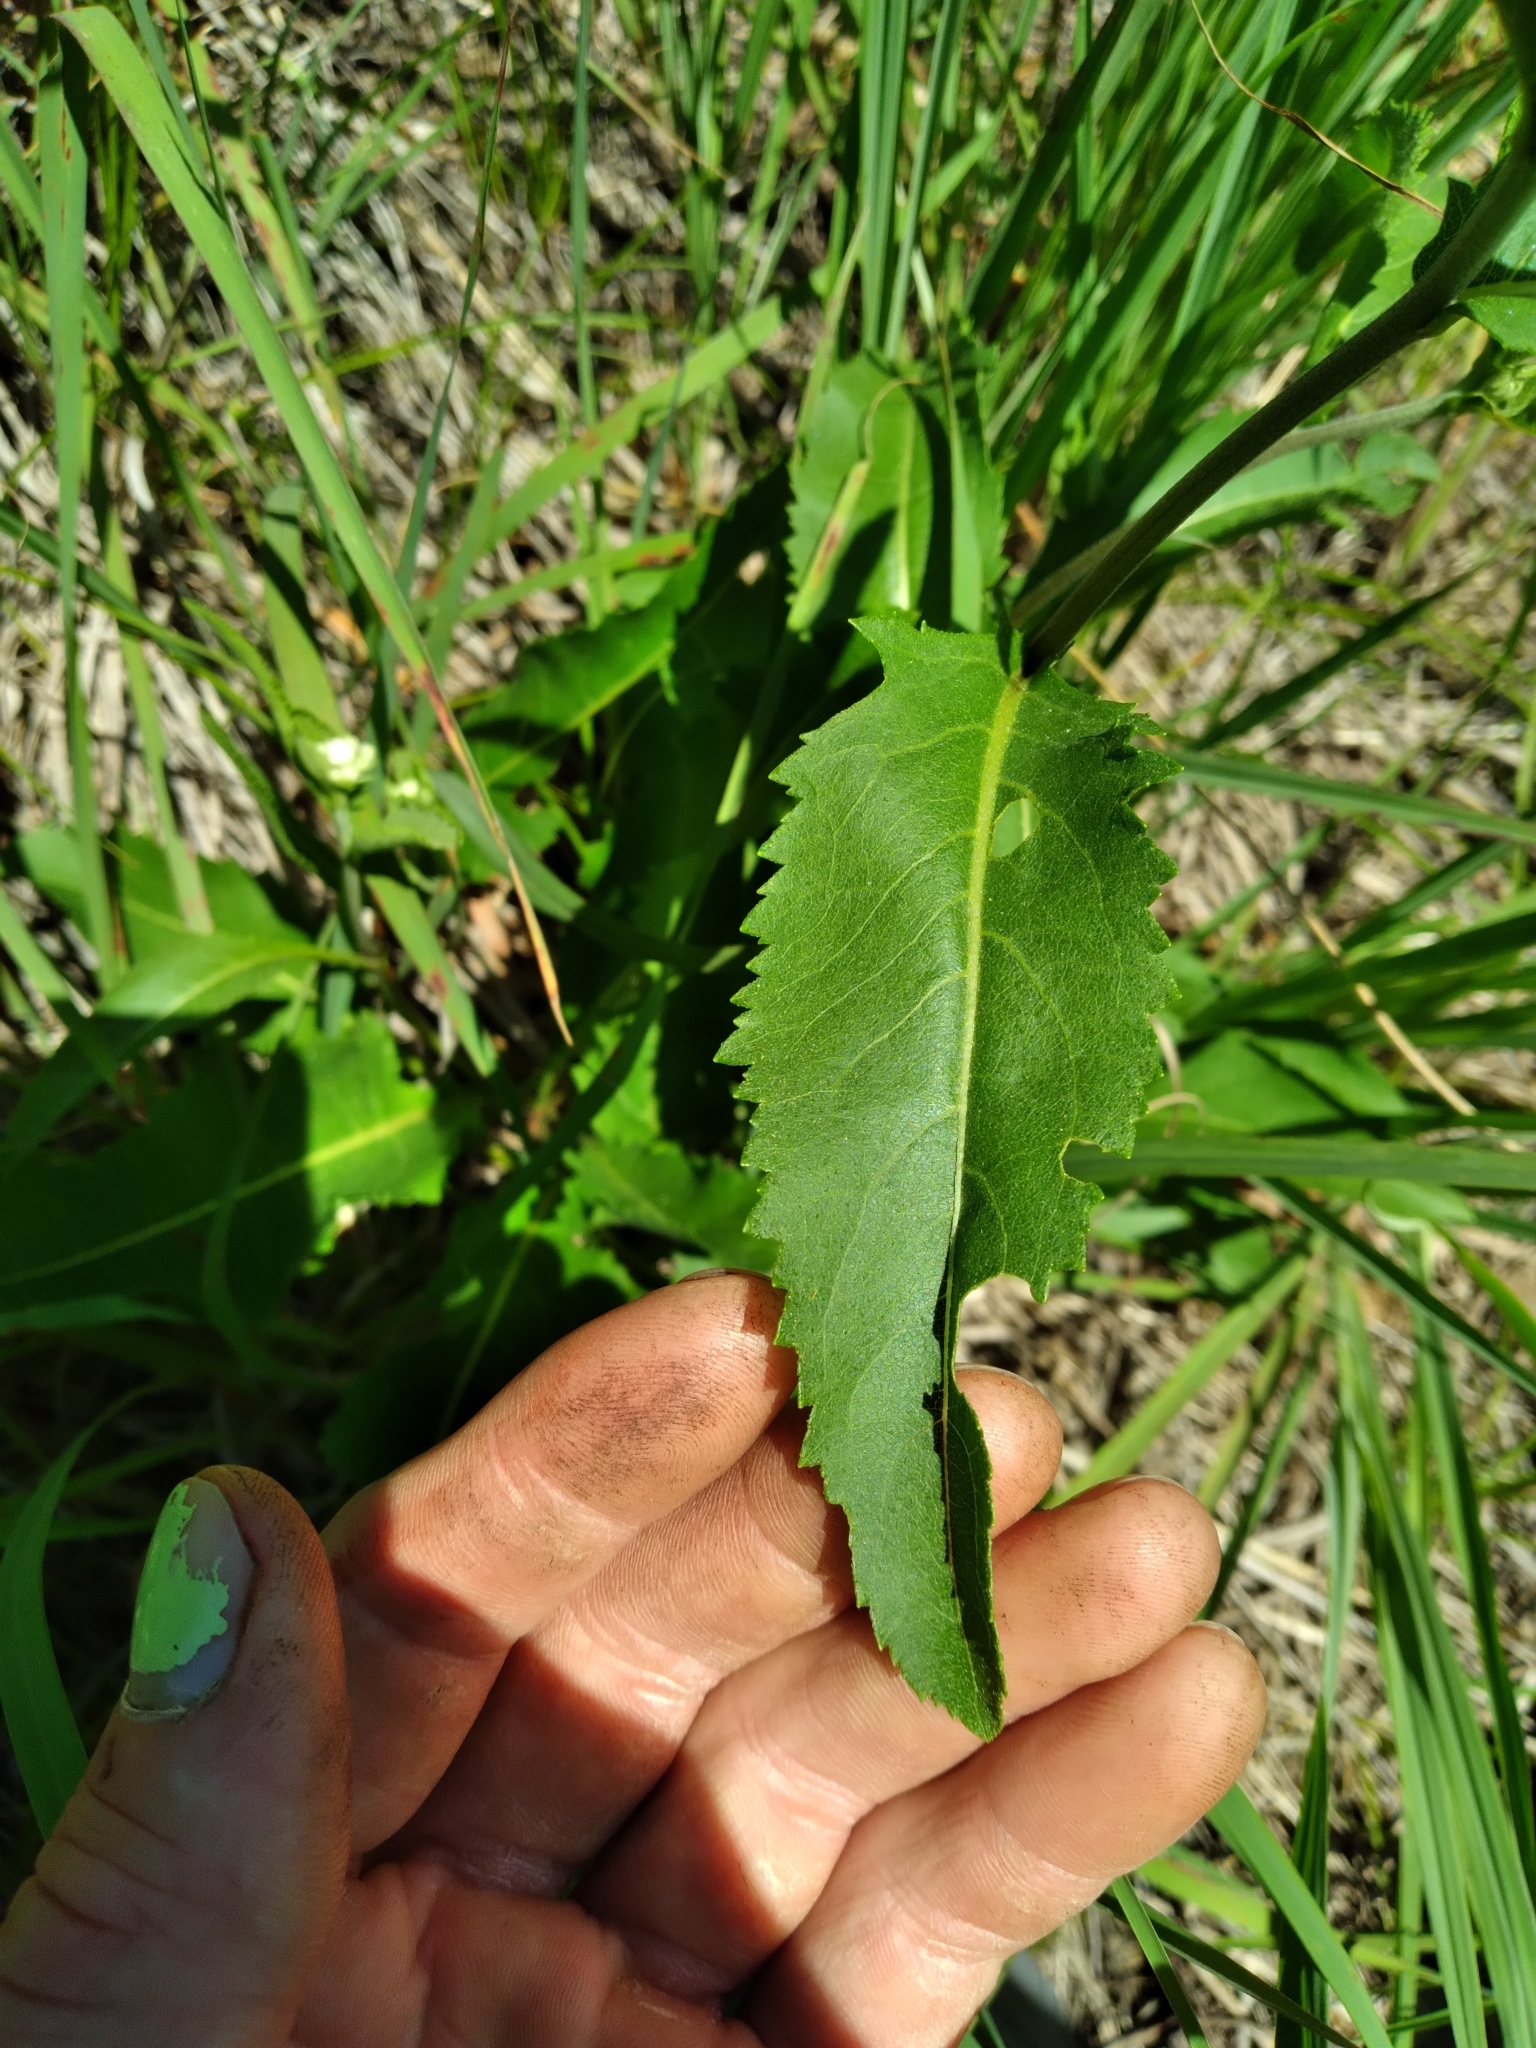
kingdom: Plantae
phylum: Tracheophyta
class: Magnoliopsida
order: Asterales
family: Asteraceae
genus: Parthenium
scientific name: Parthenium integrifolium
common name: American feverfew
